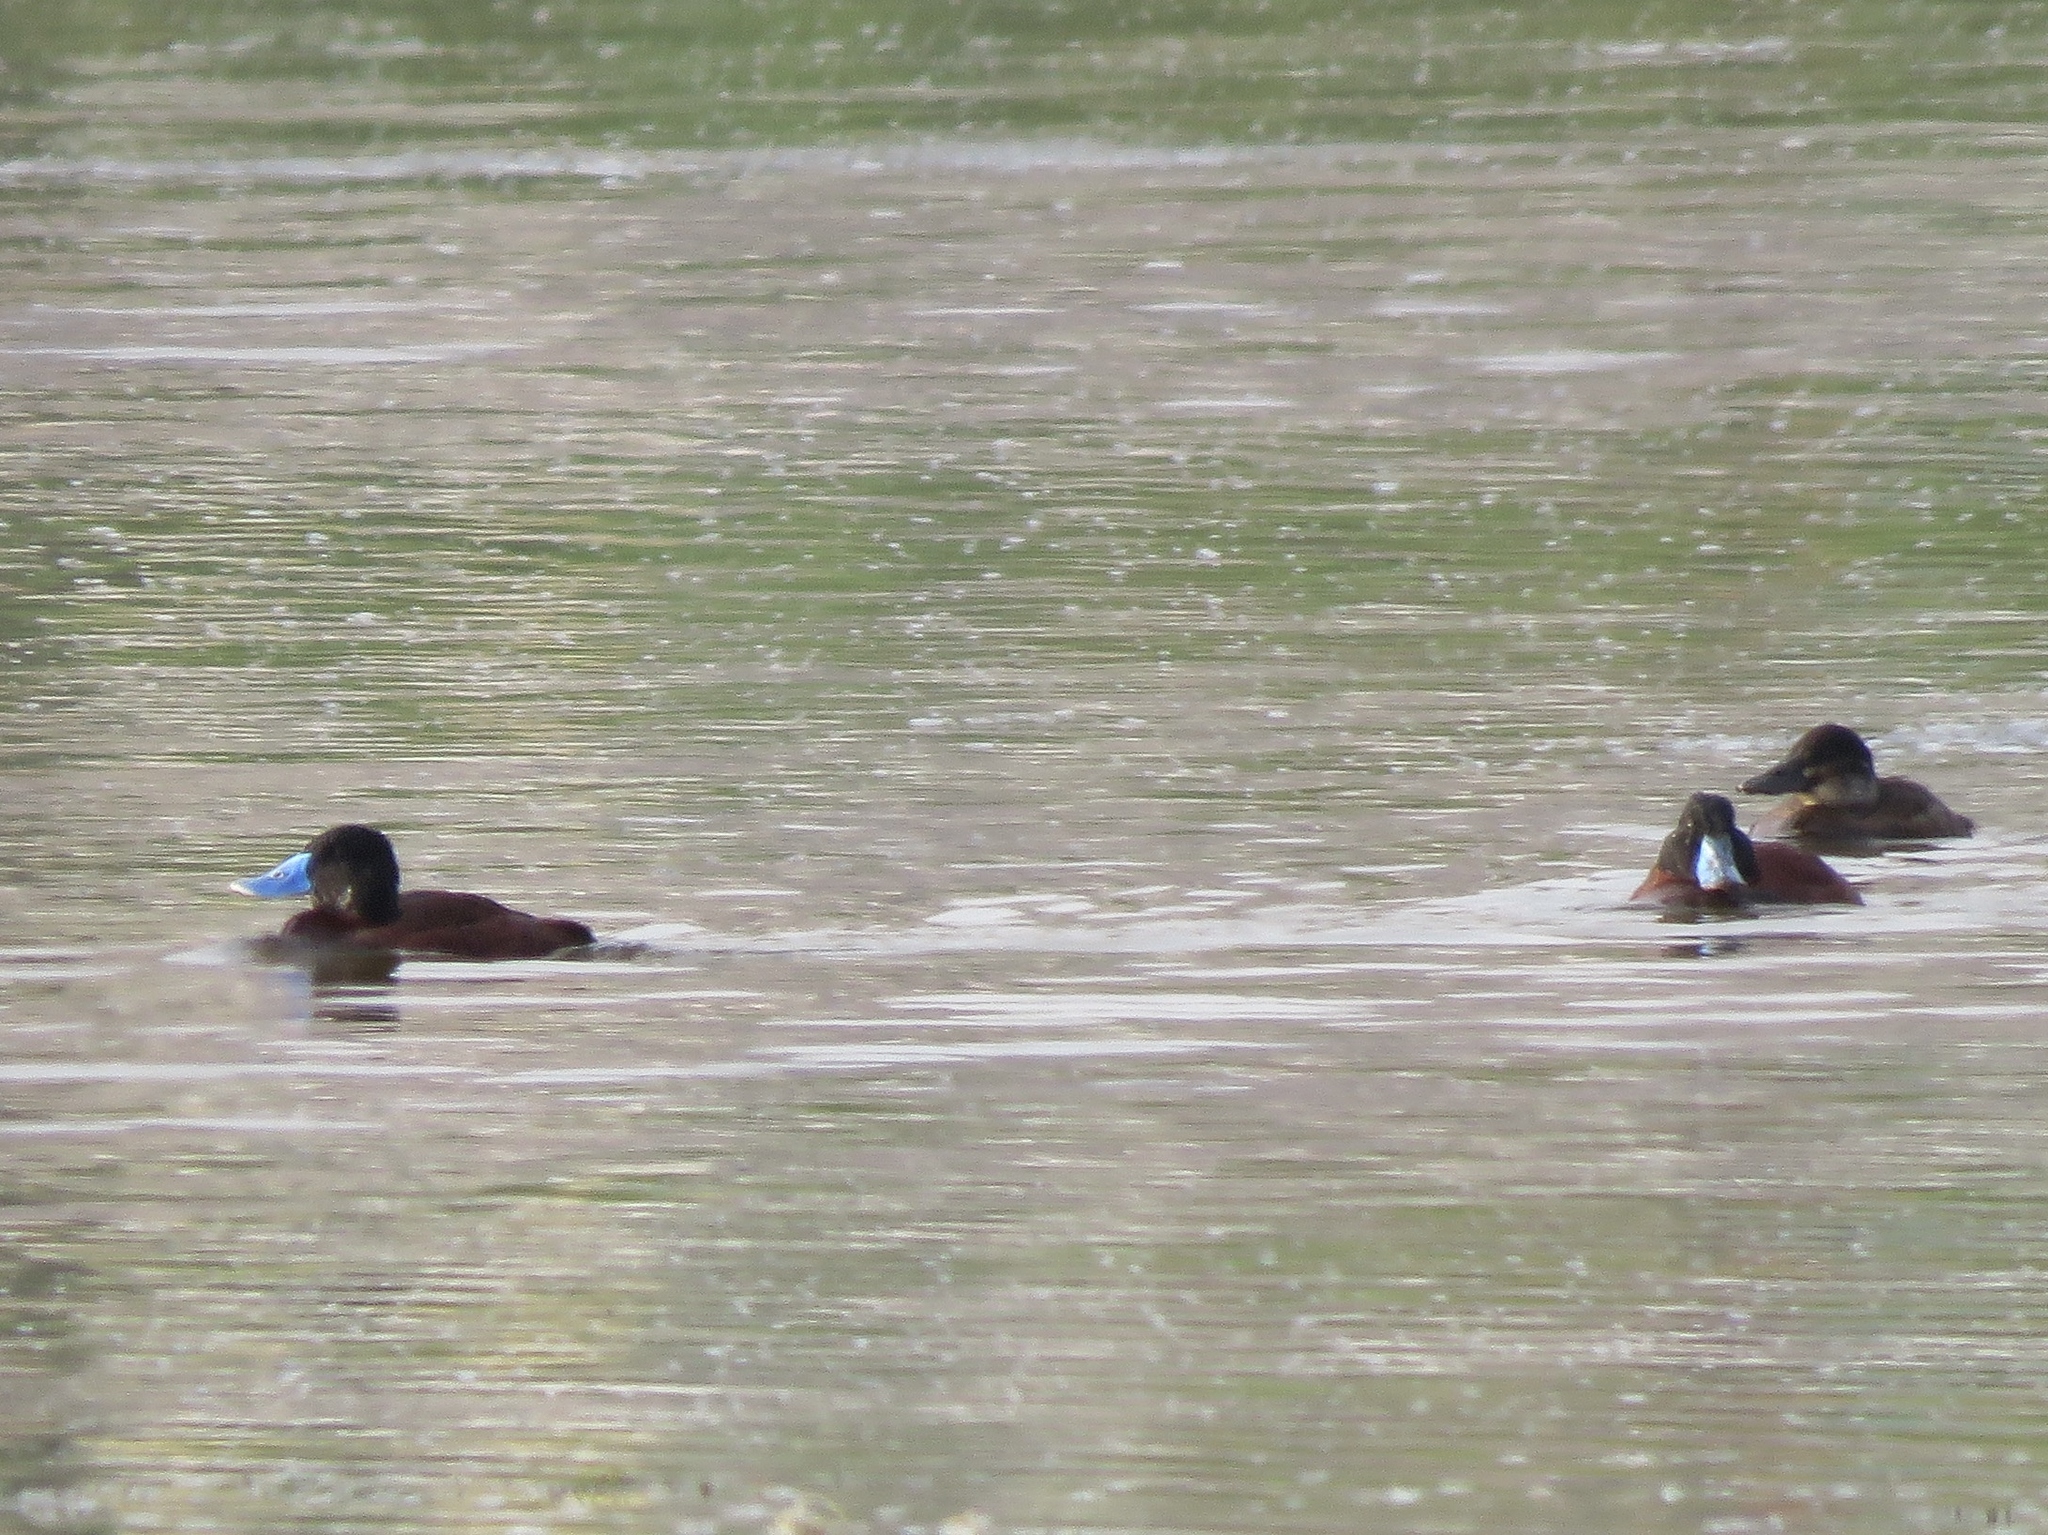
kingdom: Animalia
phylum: Chordata
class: Aves
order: Anseriformes
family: Anatidae
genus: Oxyura
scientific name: Oxyura ferruginea
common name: Andean duck
